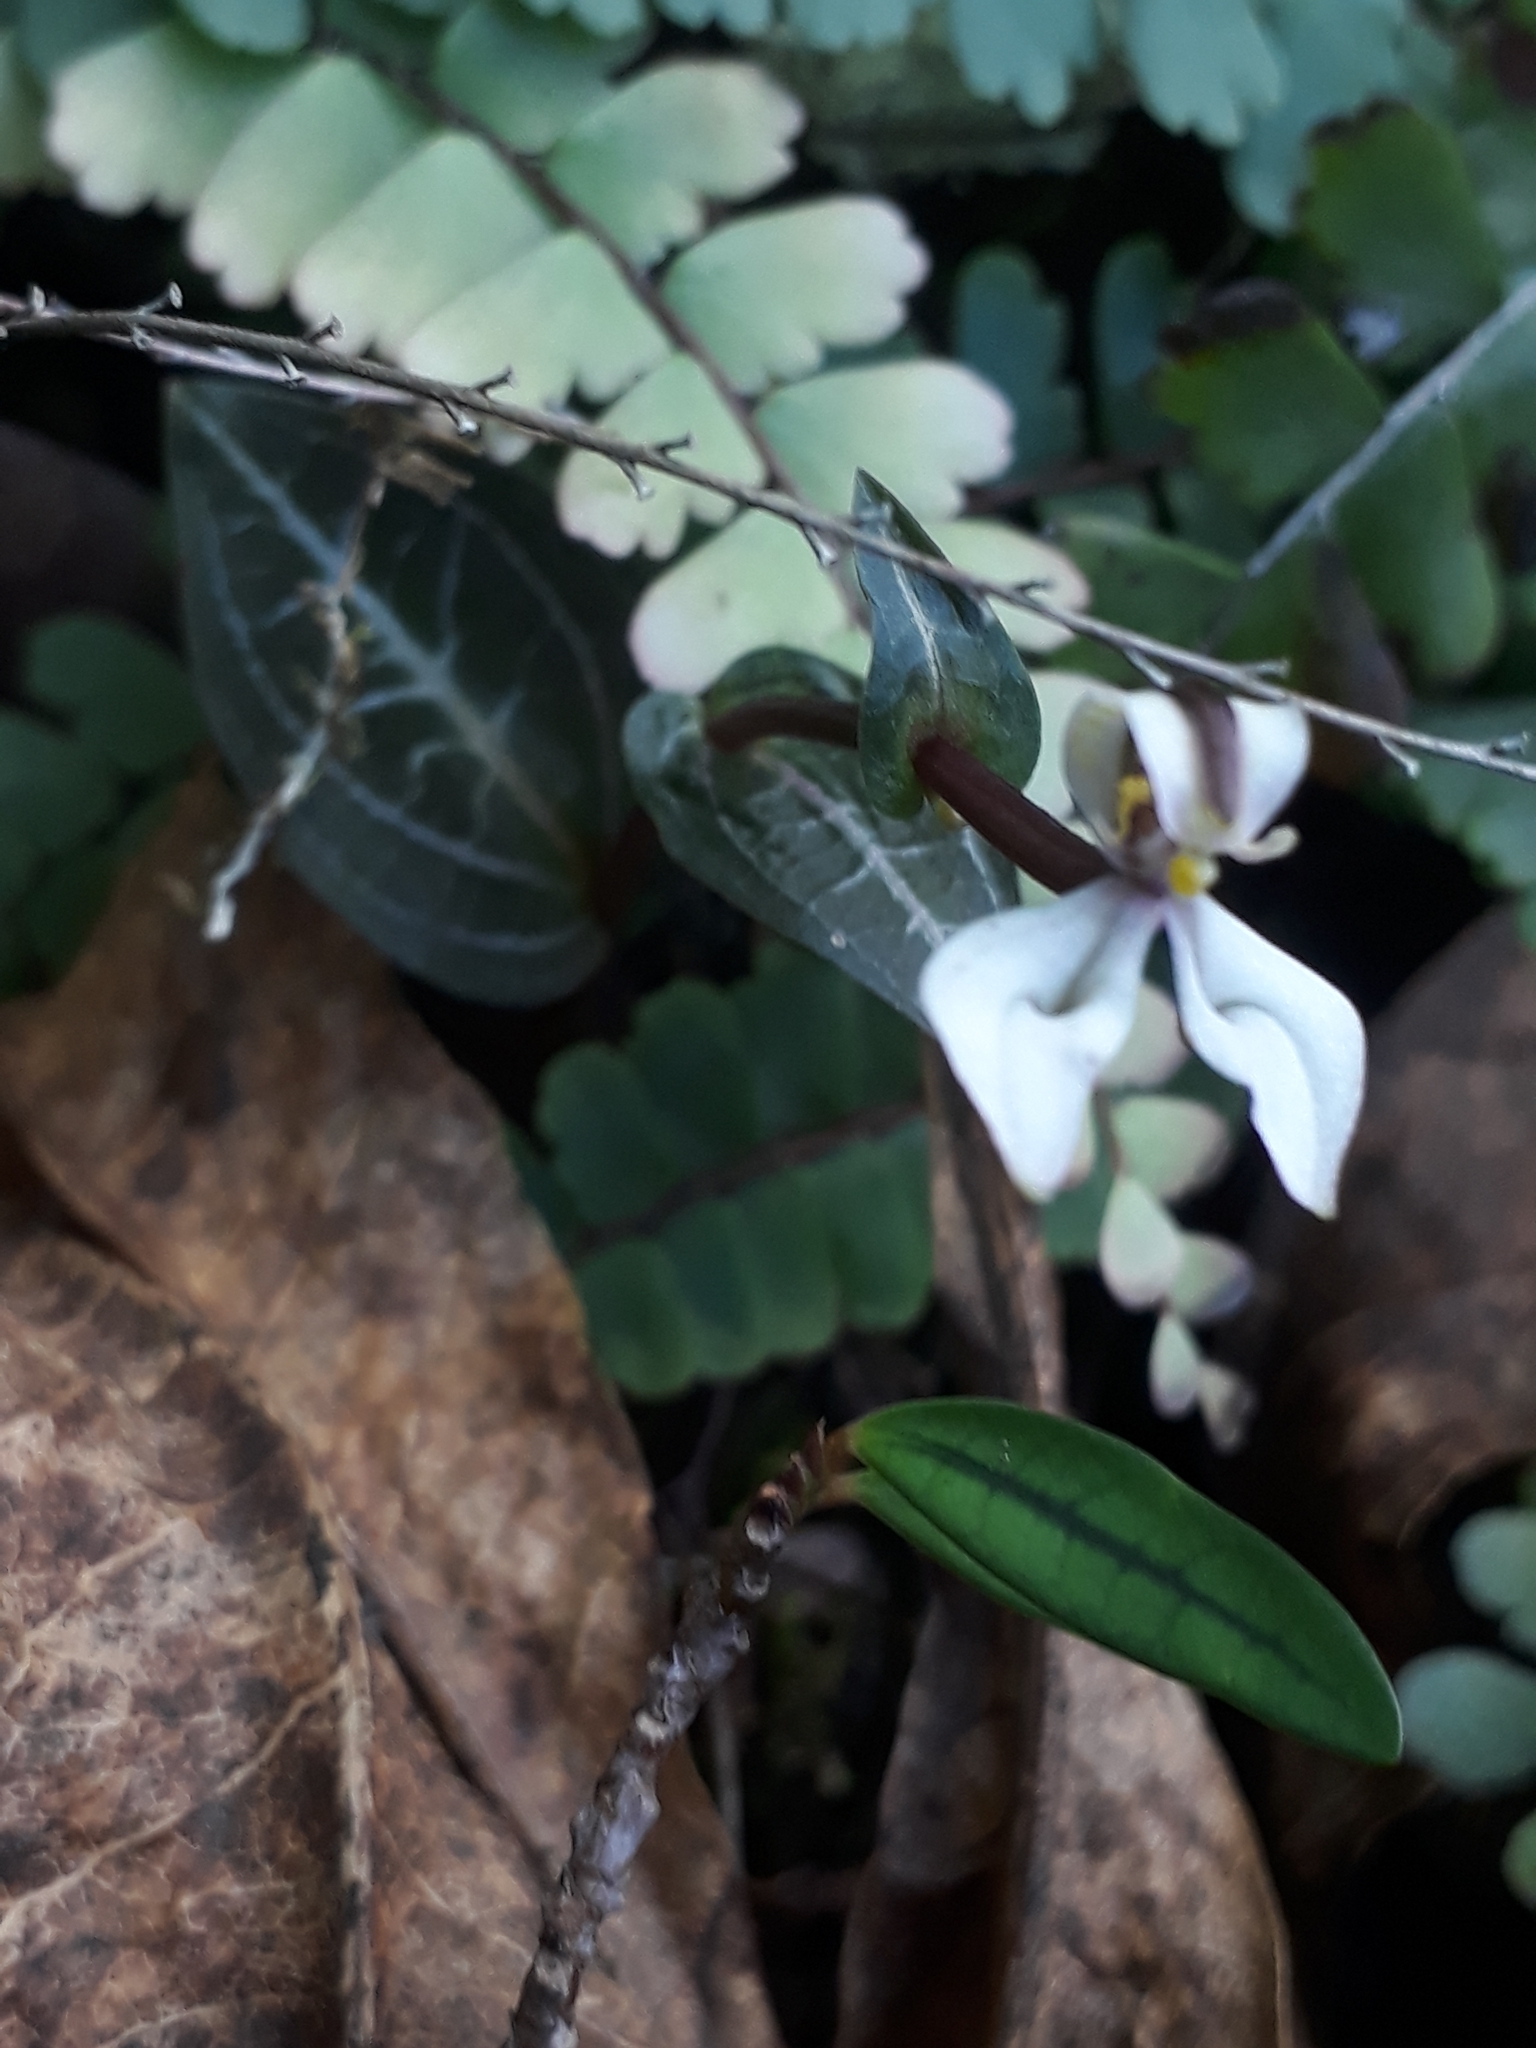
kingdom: Plantae
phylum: Tracheophyta
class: Liliopsida
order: Asparagales
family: Orchidaceae
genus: Disperis
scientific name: Disperis tripetaloides
